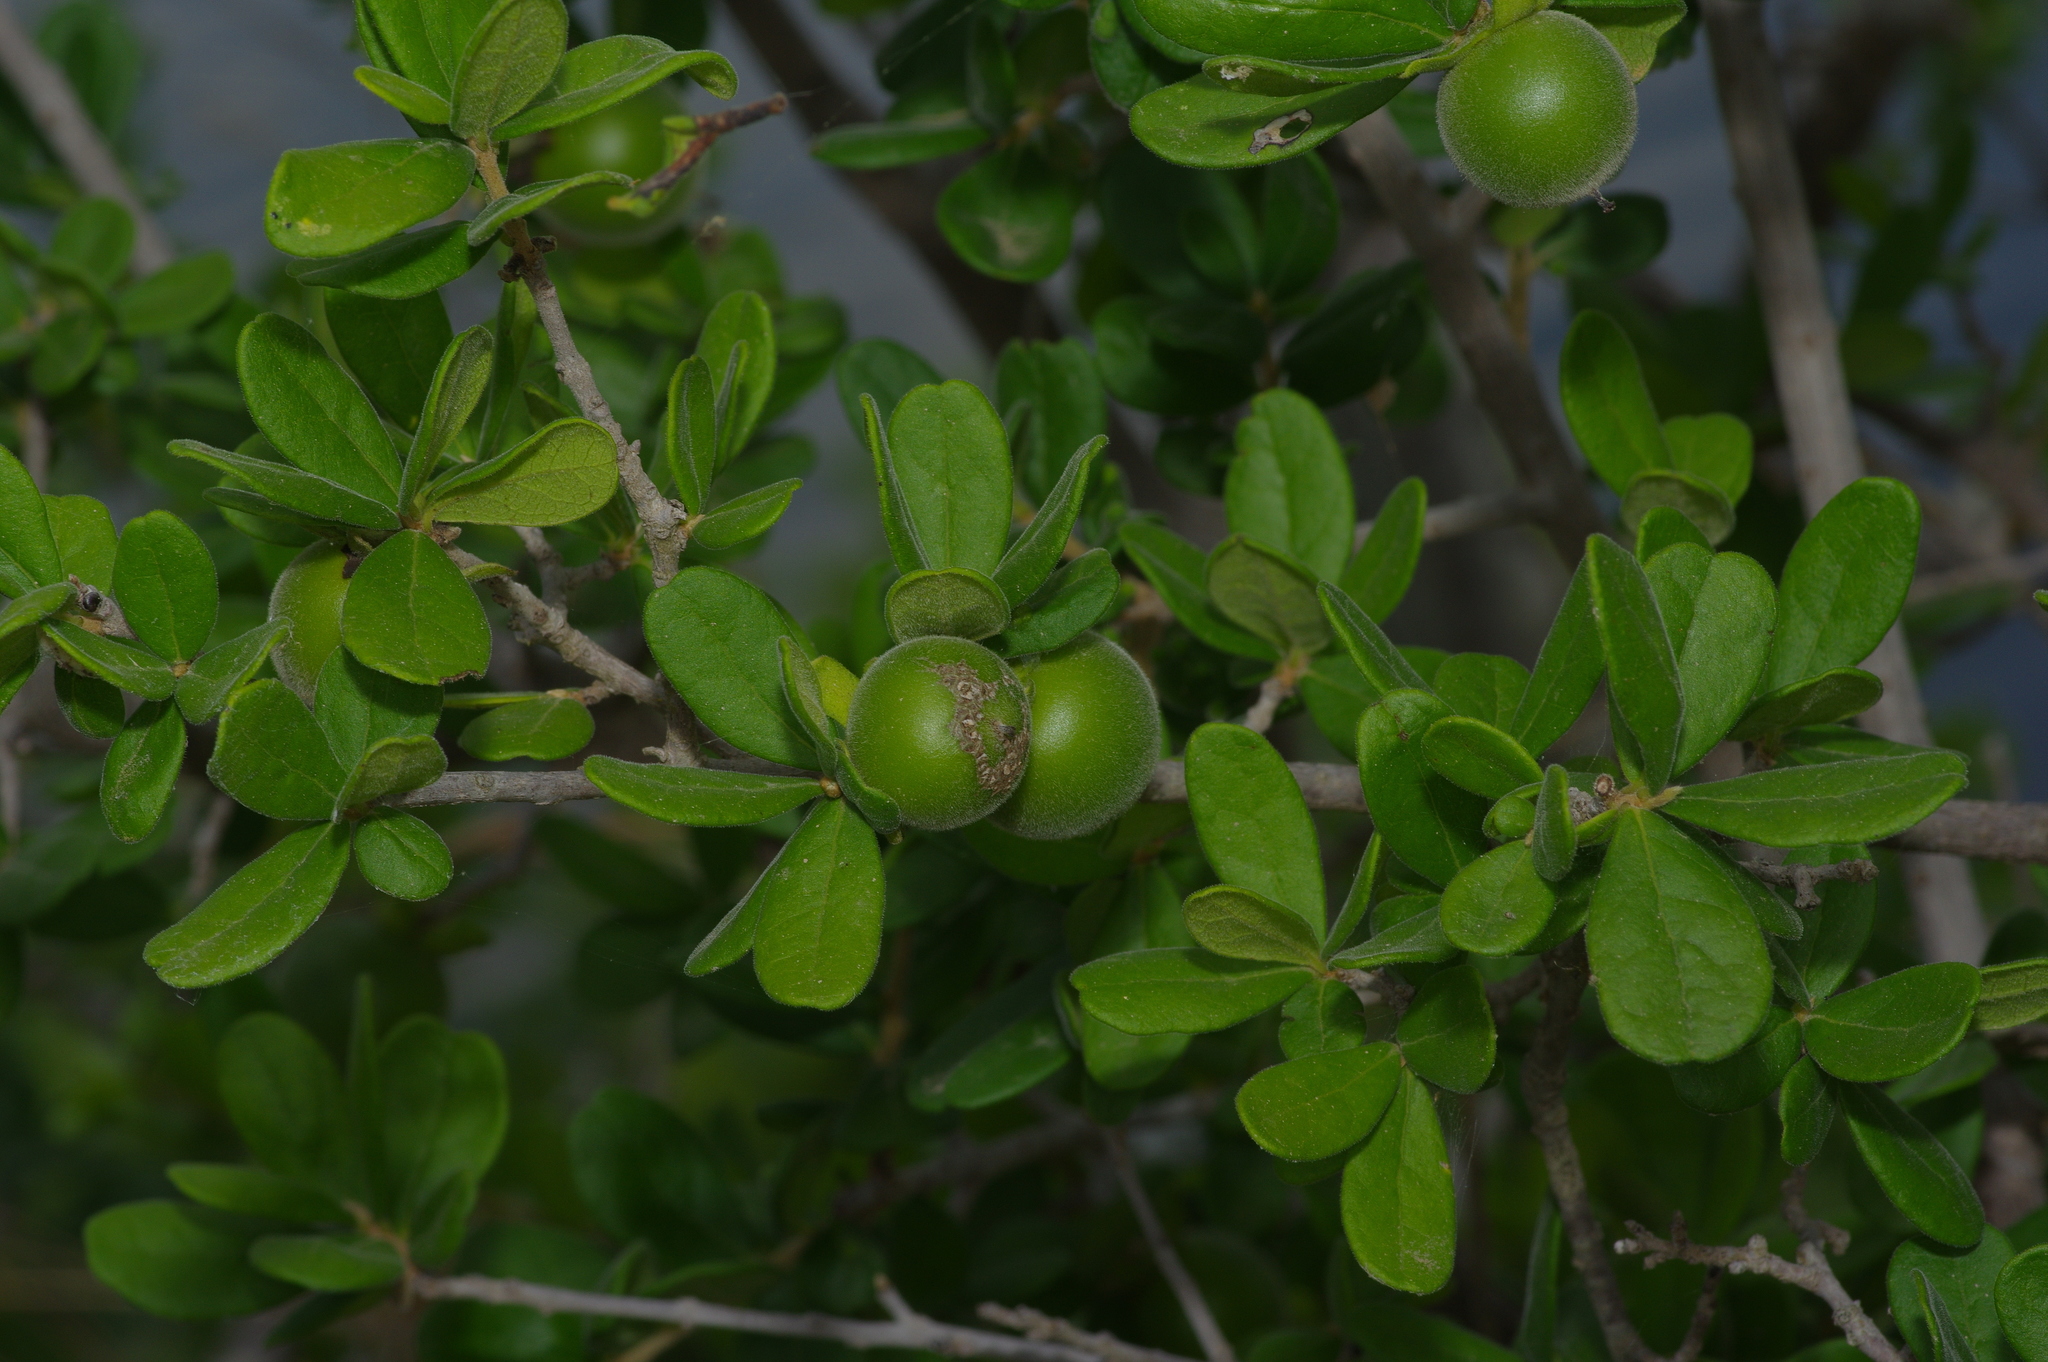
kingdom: Plantae
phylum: Tracheophyta
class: Magnoliopsida
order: Ericales
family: Ebenaceae
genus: Diospyros
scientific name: Diospyros texana
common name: Texas persimmon
